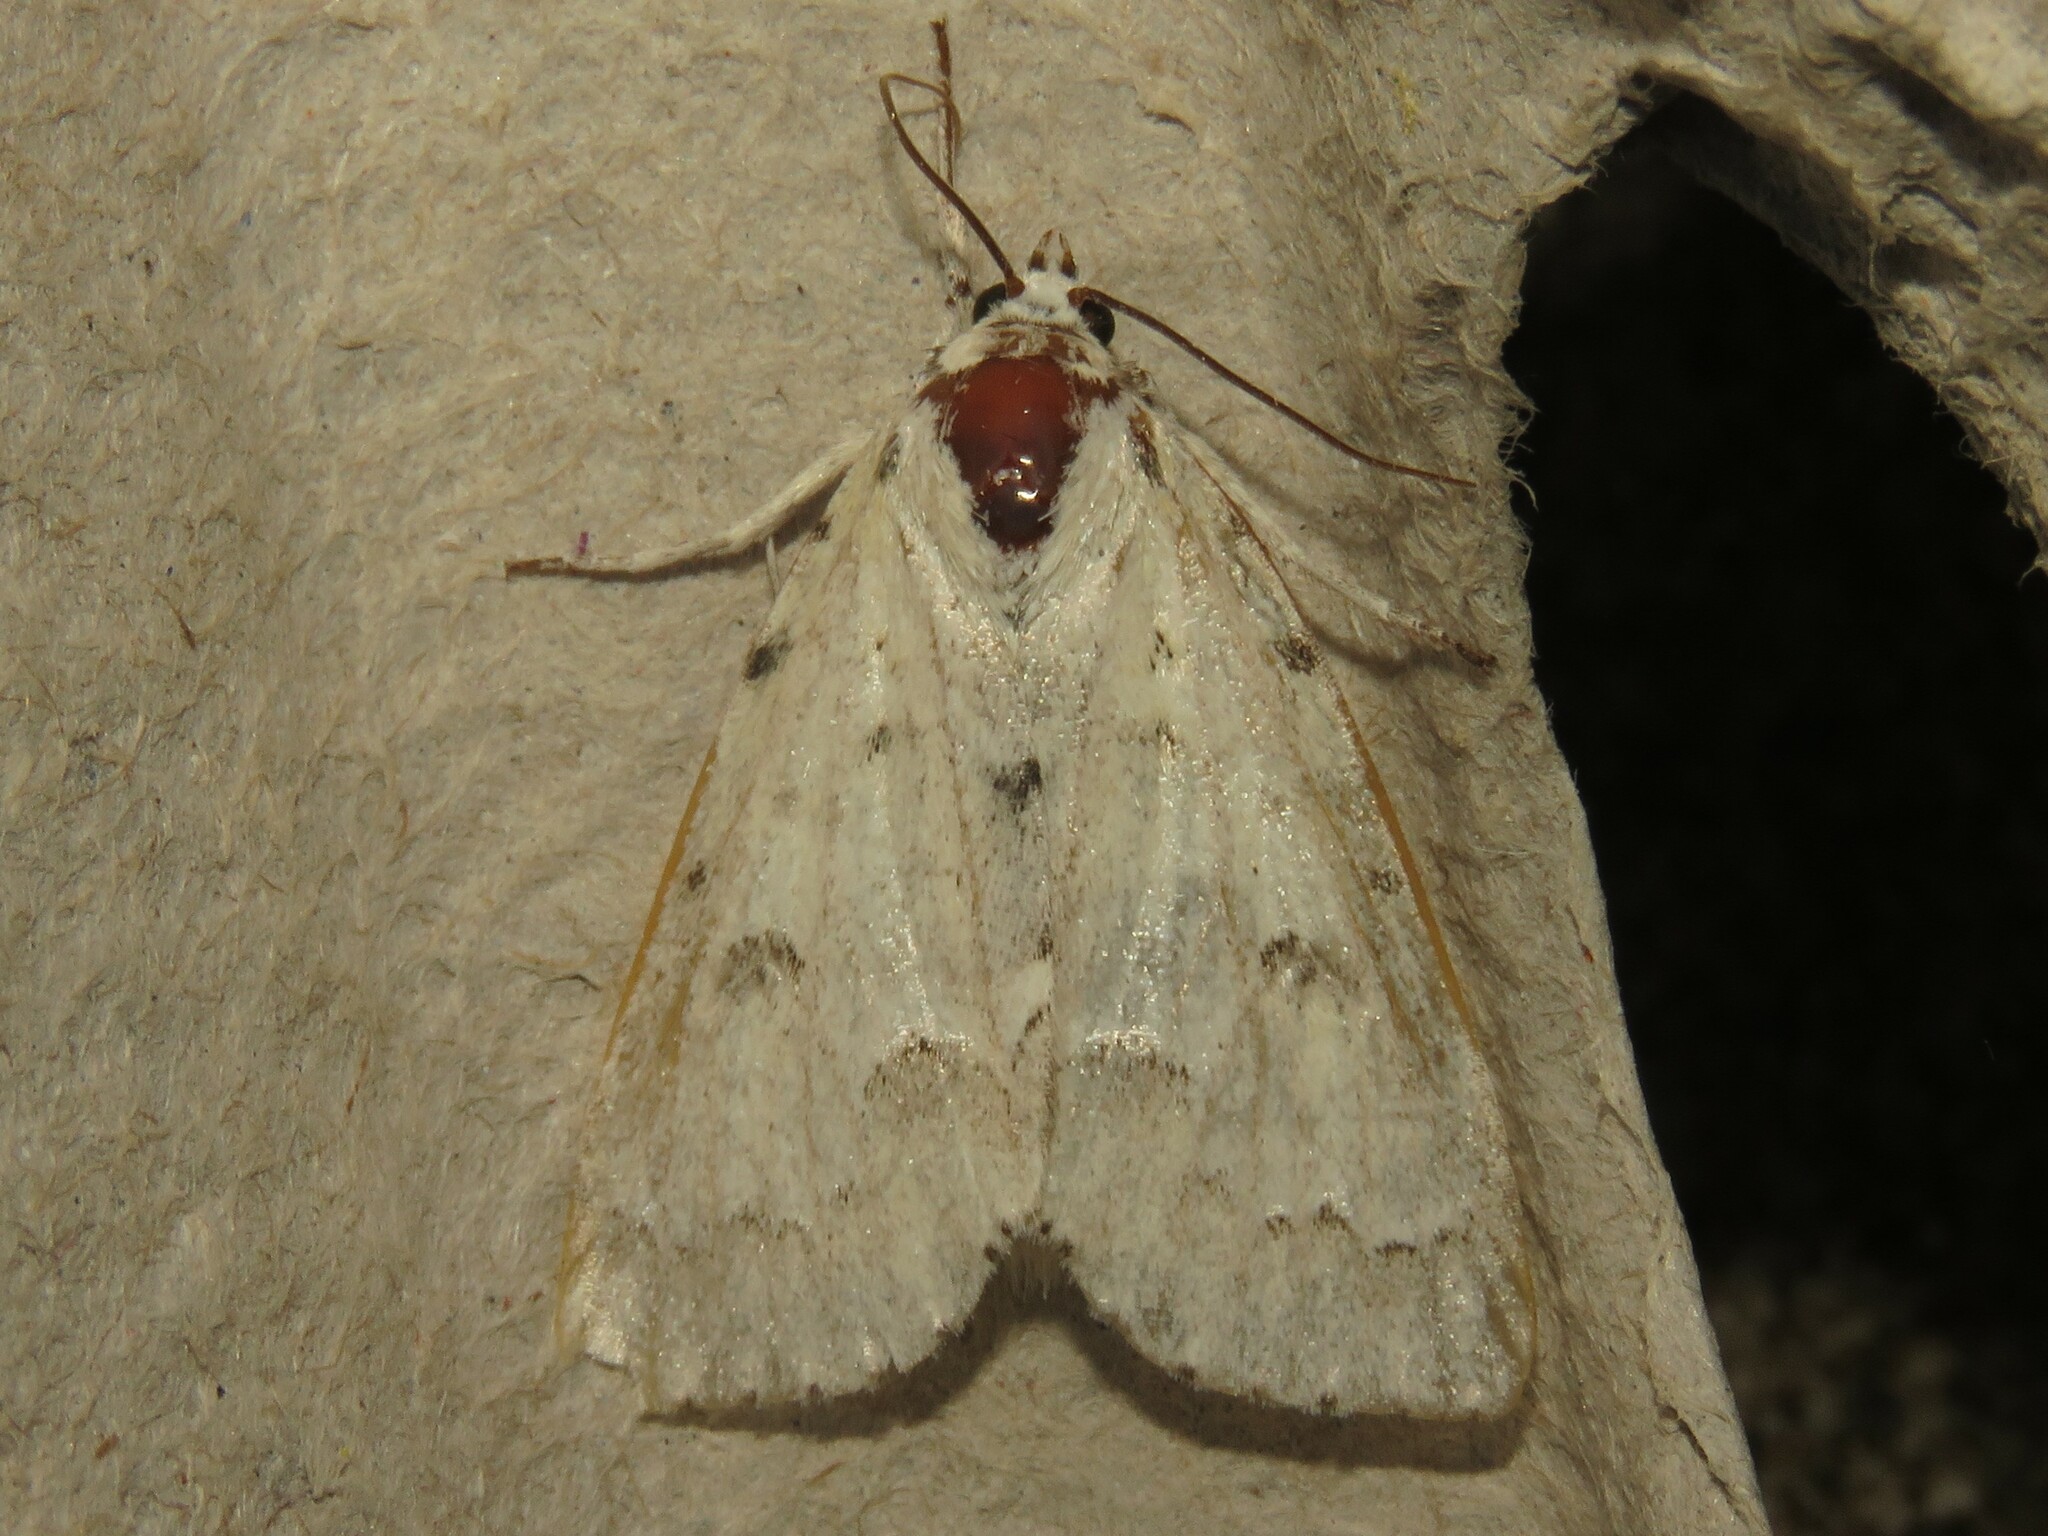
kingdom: Animalia
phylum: Arthropoda
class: Insecta
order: Lepidoptera
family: Noctuidae
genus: Acronicta
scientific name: Acronicta innotata
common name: Unmarked dagger
